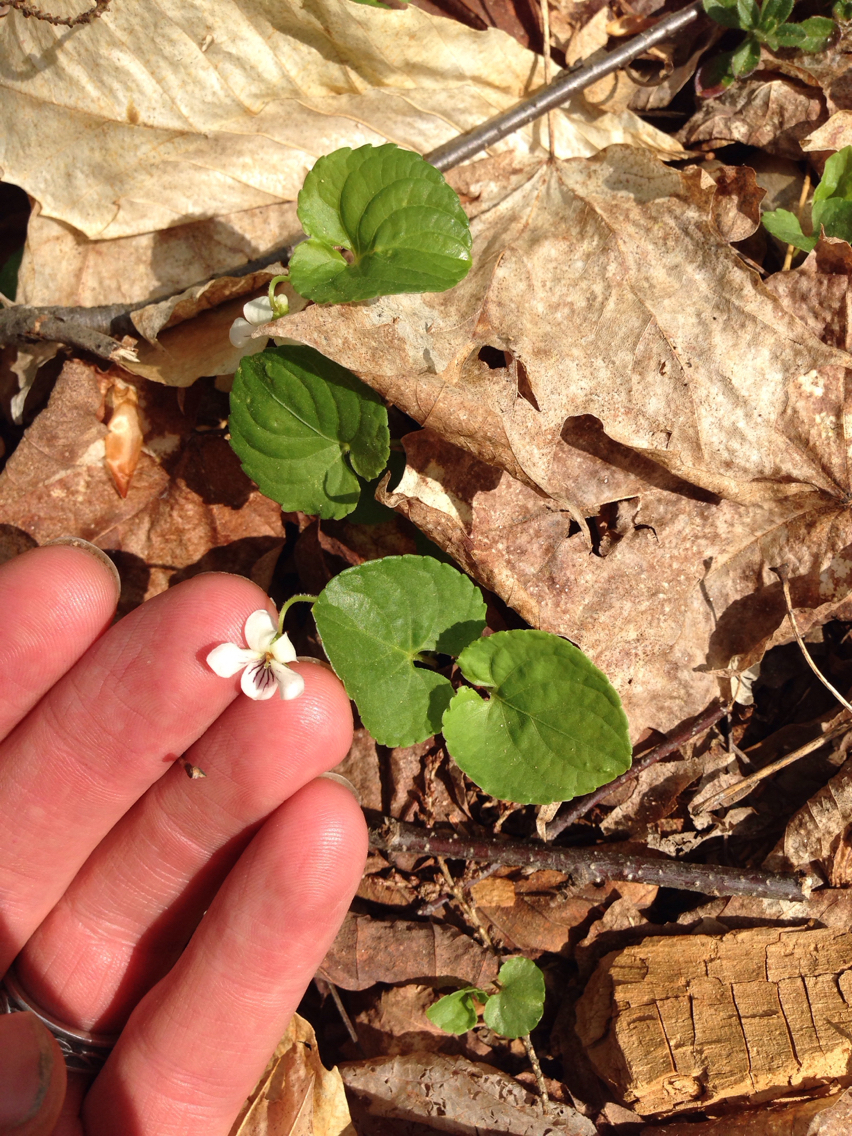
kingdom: Plantae
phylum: Tracheophyta
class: Magnoliopsida
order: Malpighiales
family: Violaceae
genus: Viola
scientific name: Viola blanda
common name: Sweet white violet
